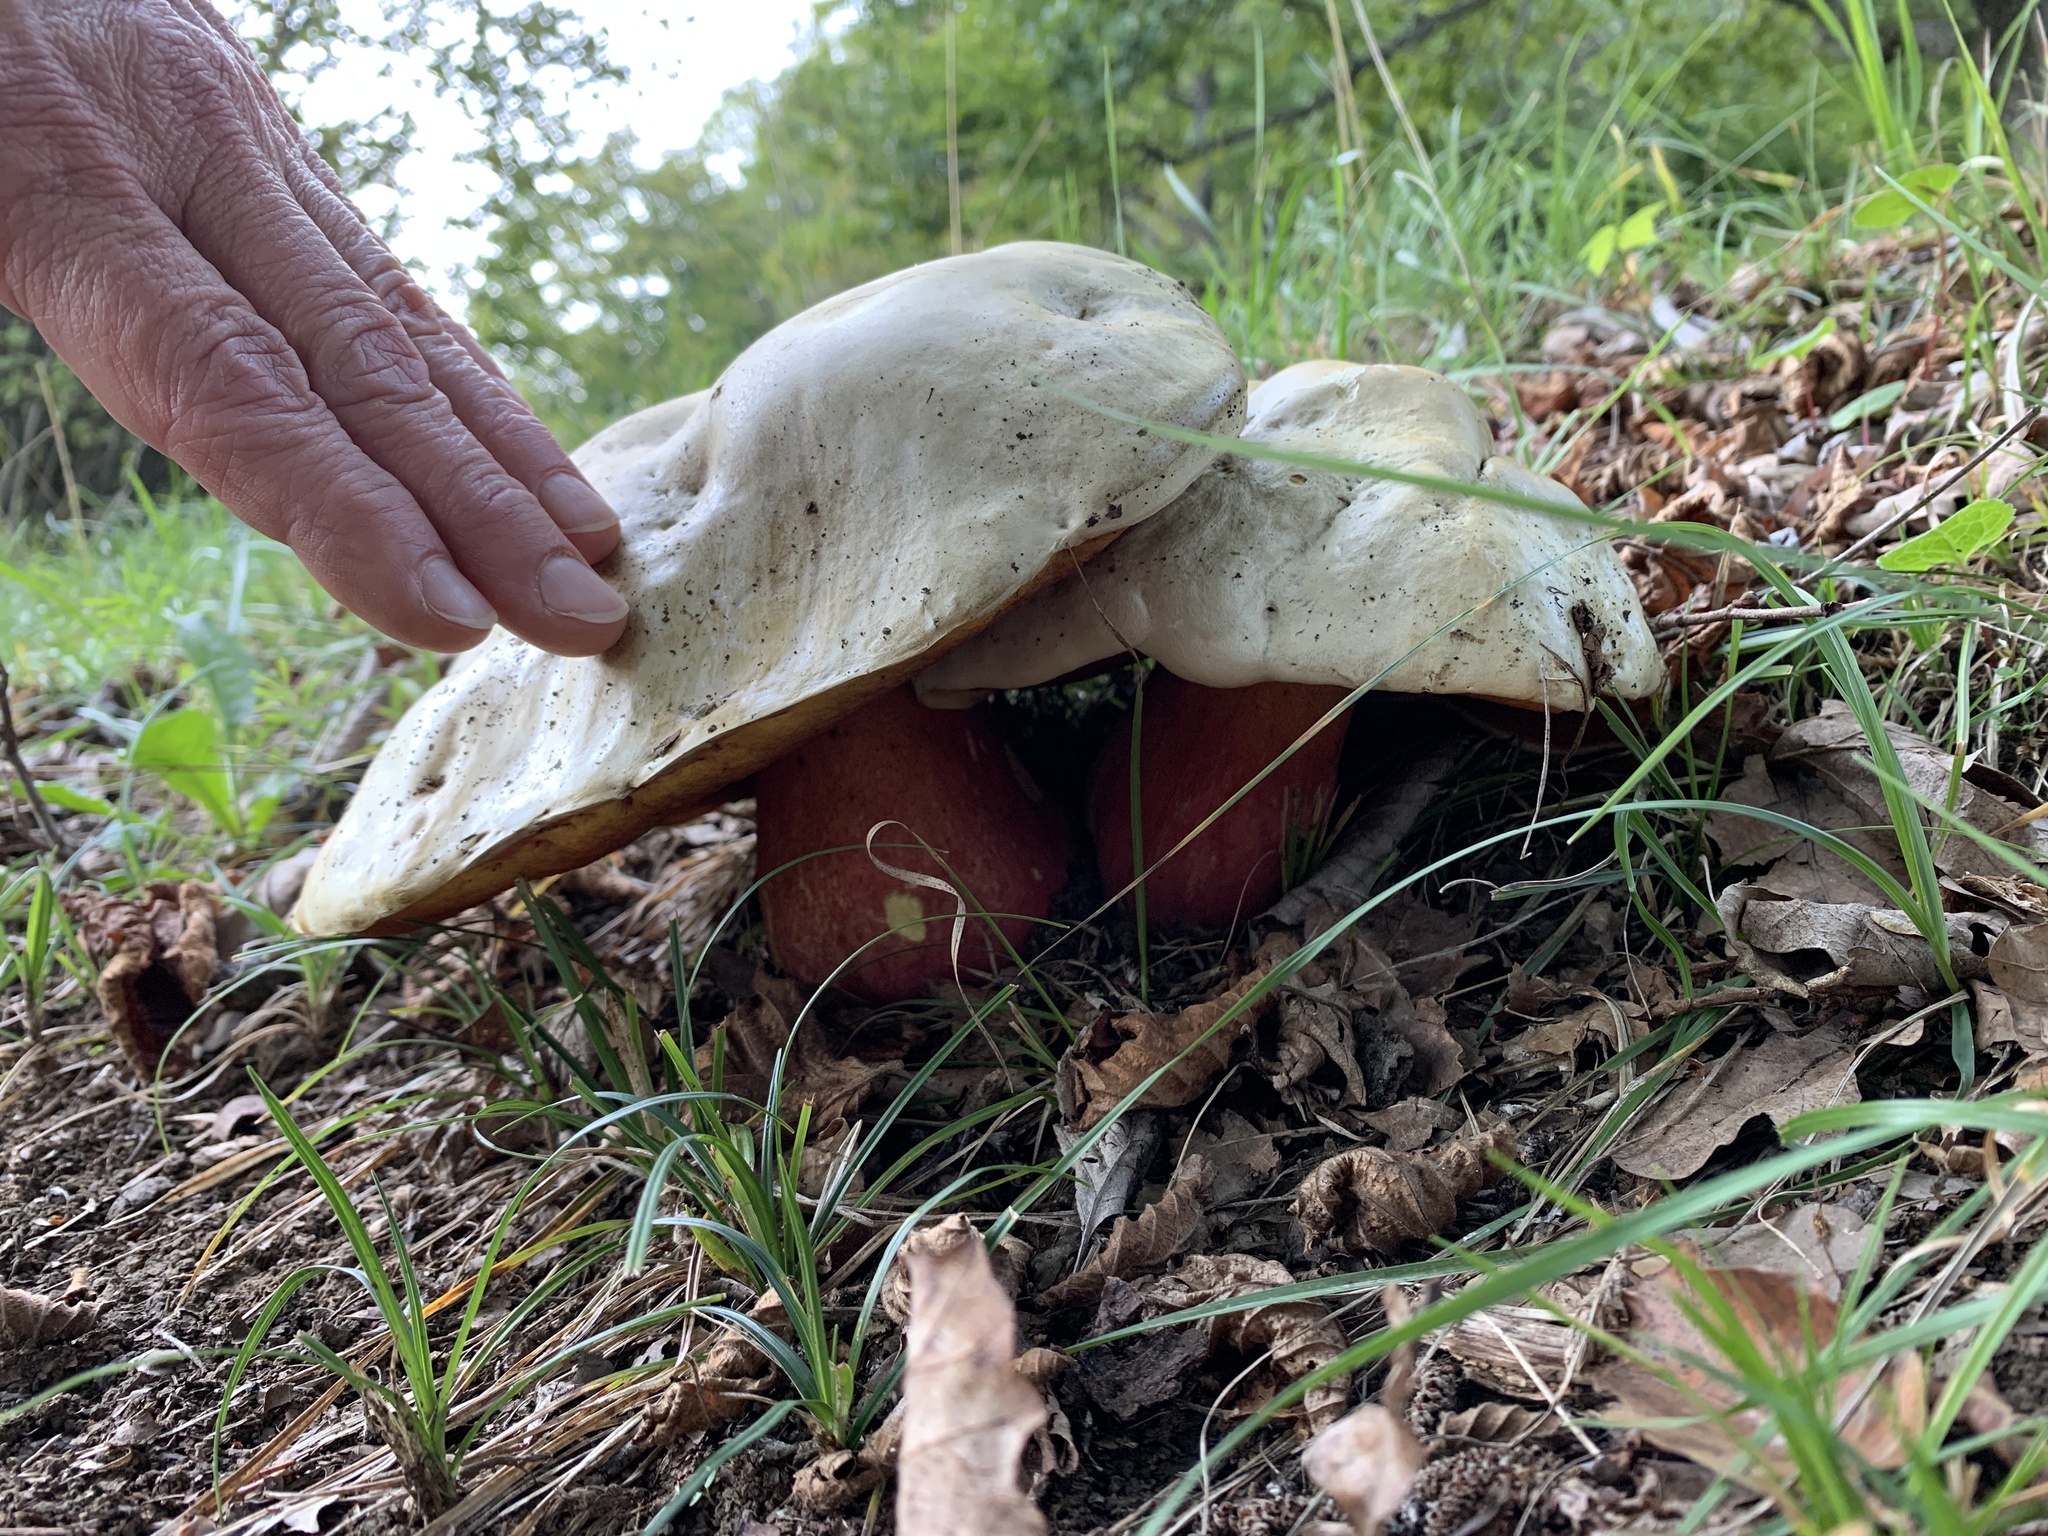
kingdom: Fungi
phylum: Basidiomycota
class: Agaricomycetes
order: Boletales
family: Boletaceae
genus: Caloboletus
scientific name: Caloboletus calopus
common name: Bitter beech bolete
